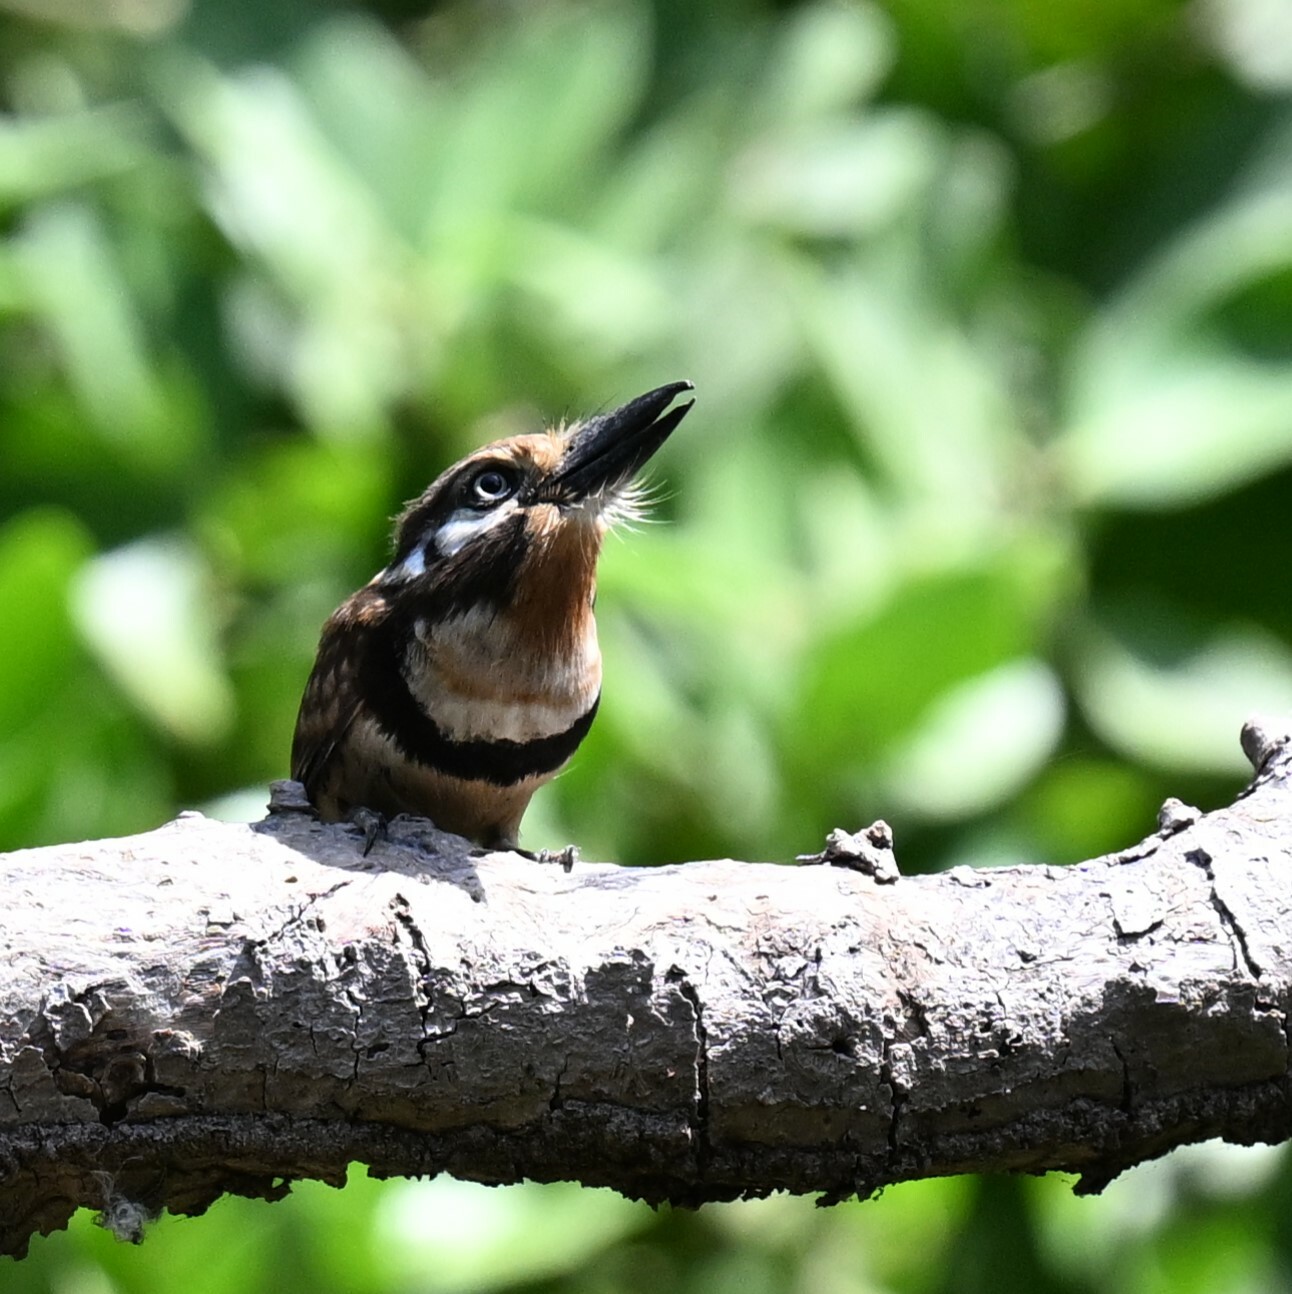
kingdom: Animalia
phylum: Chordata
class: Aves
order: Piciformes
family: Bucconidae
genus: Hypnelus
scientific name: Hypnelus ruficollis
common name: Russet-throated puffbird
